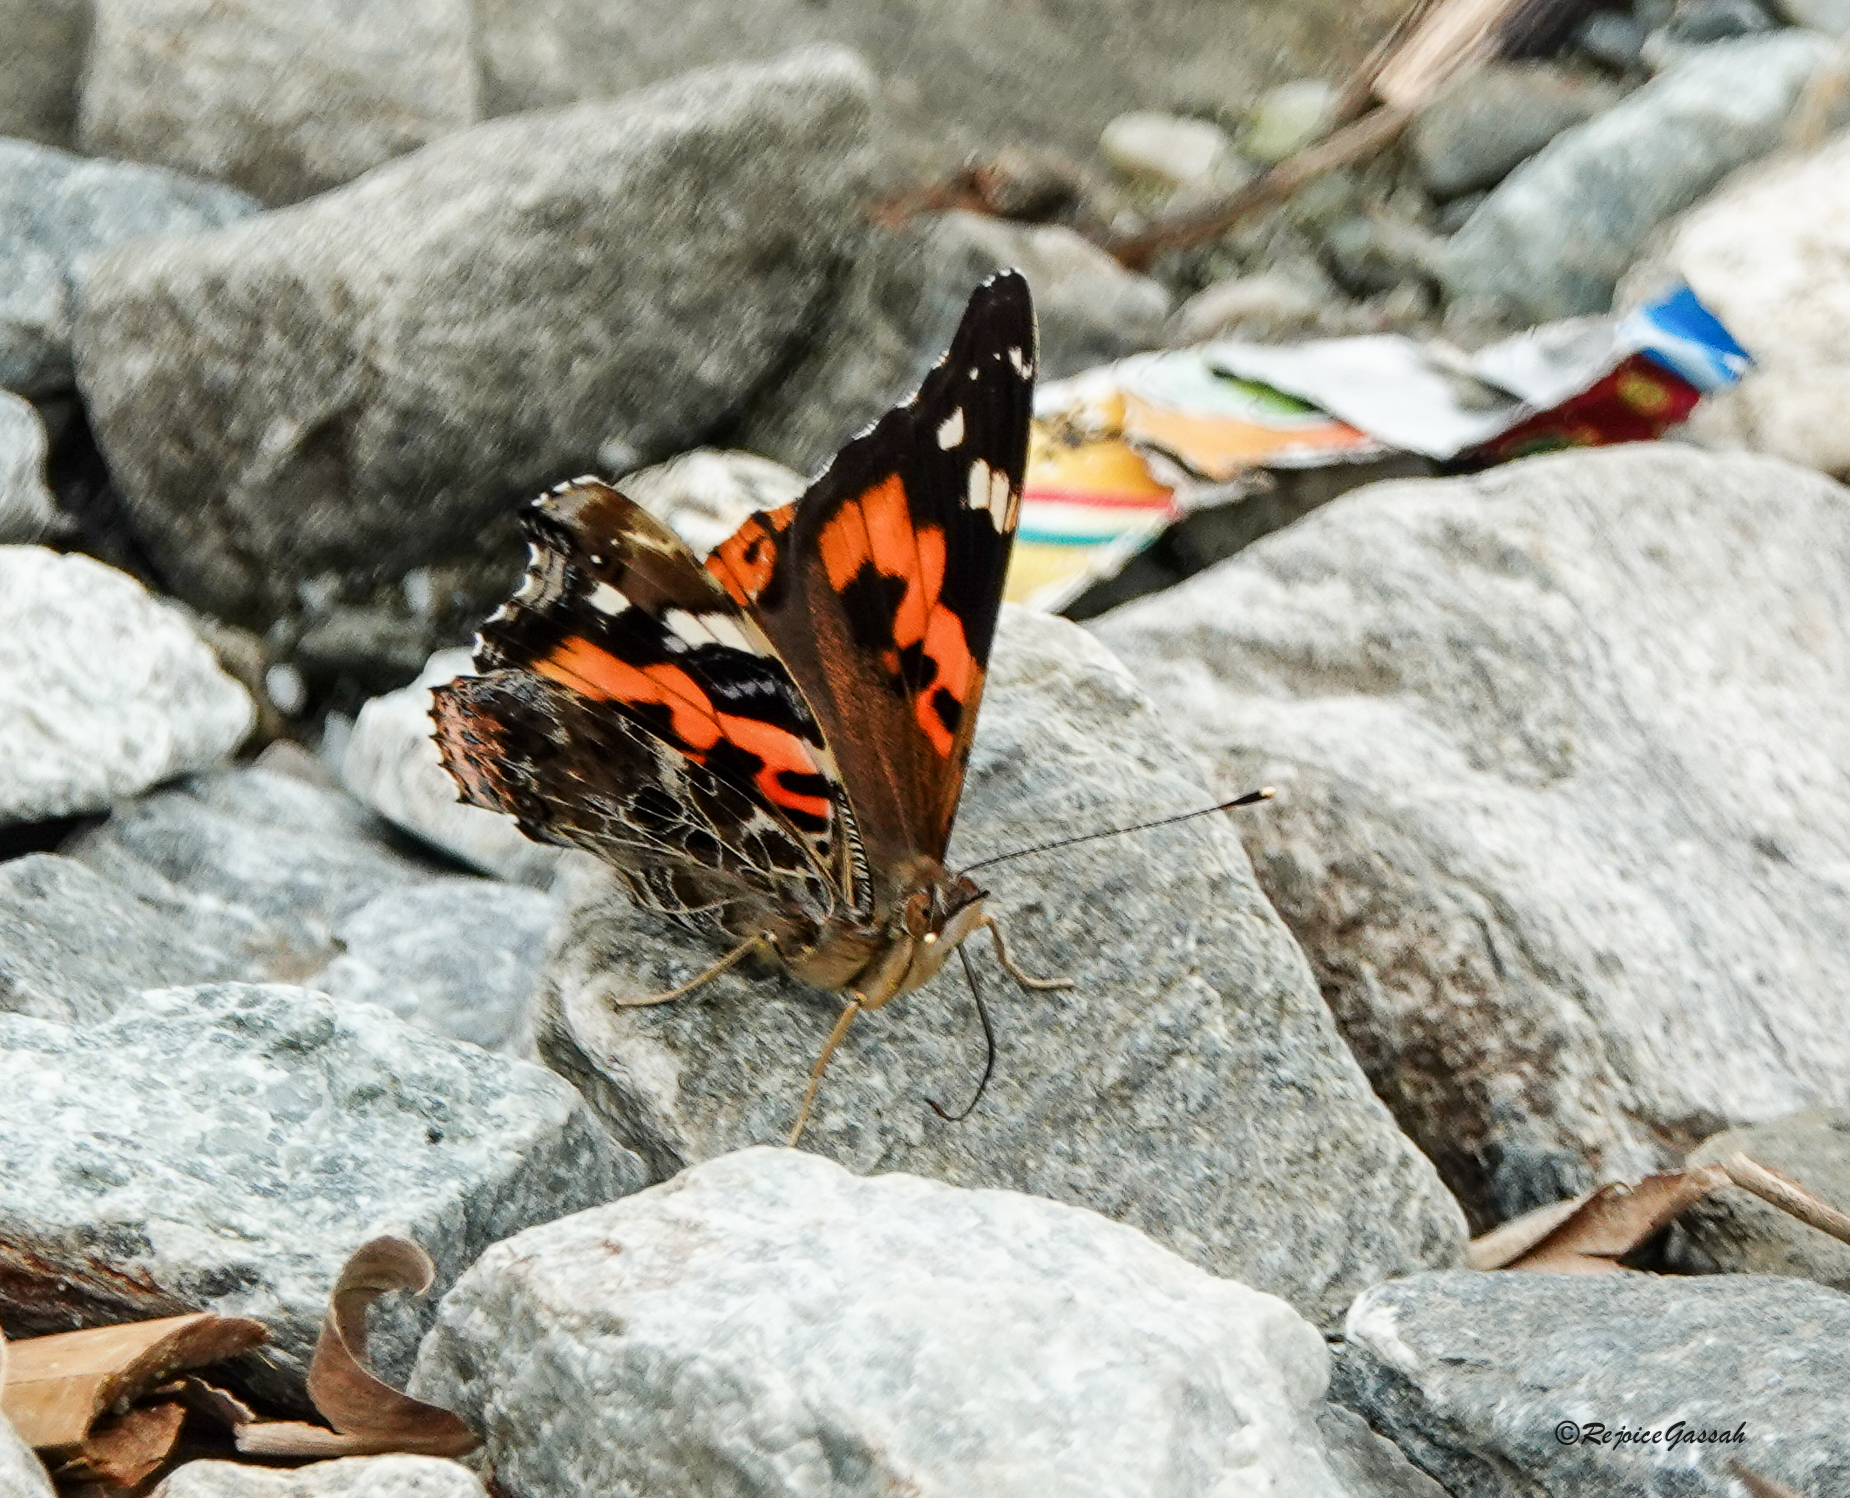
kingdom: Animalia
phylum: Arthropoda
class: Insecta
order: Lepidoptera
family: Nymphalidae
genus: Vanessa
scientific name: Vanessa indica
